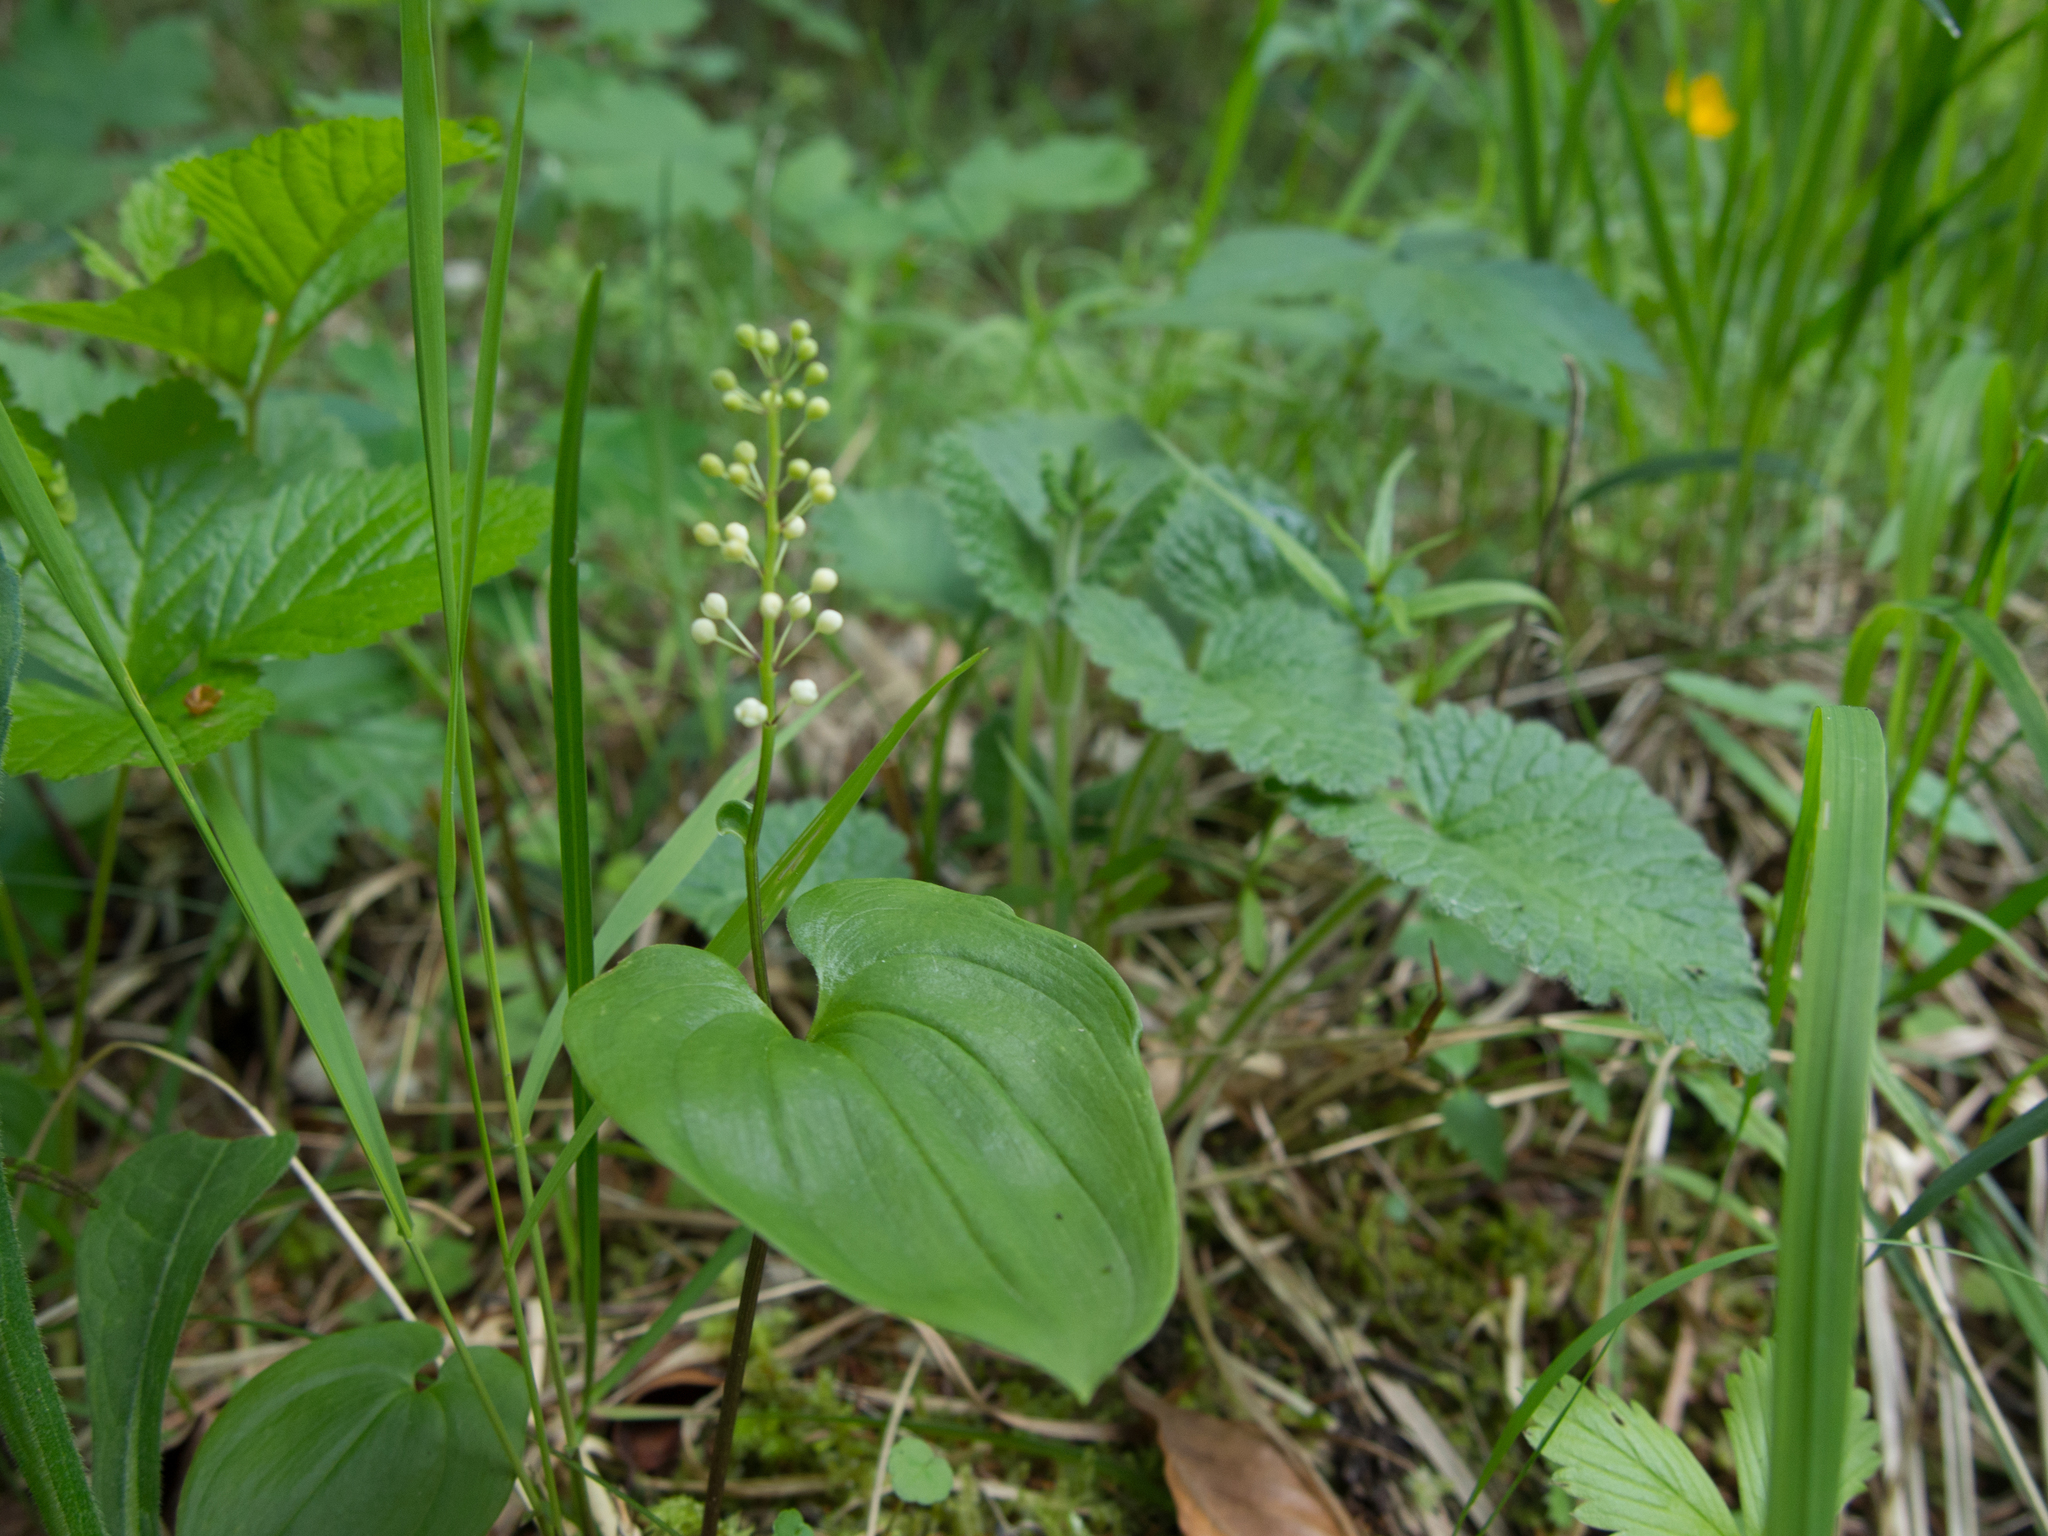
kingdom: Plantae
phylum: Tracheophyta
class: Liliopsida
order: Asparagales
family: Asparagaceae
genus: Maianthemum
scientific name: Maianthemum bifolium
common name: May lily
